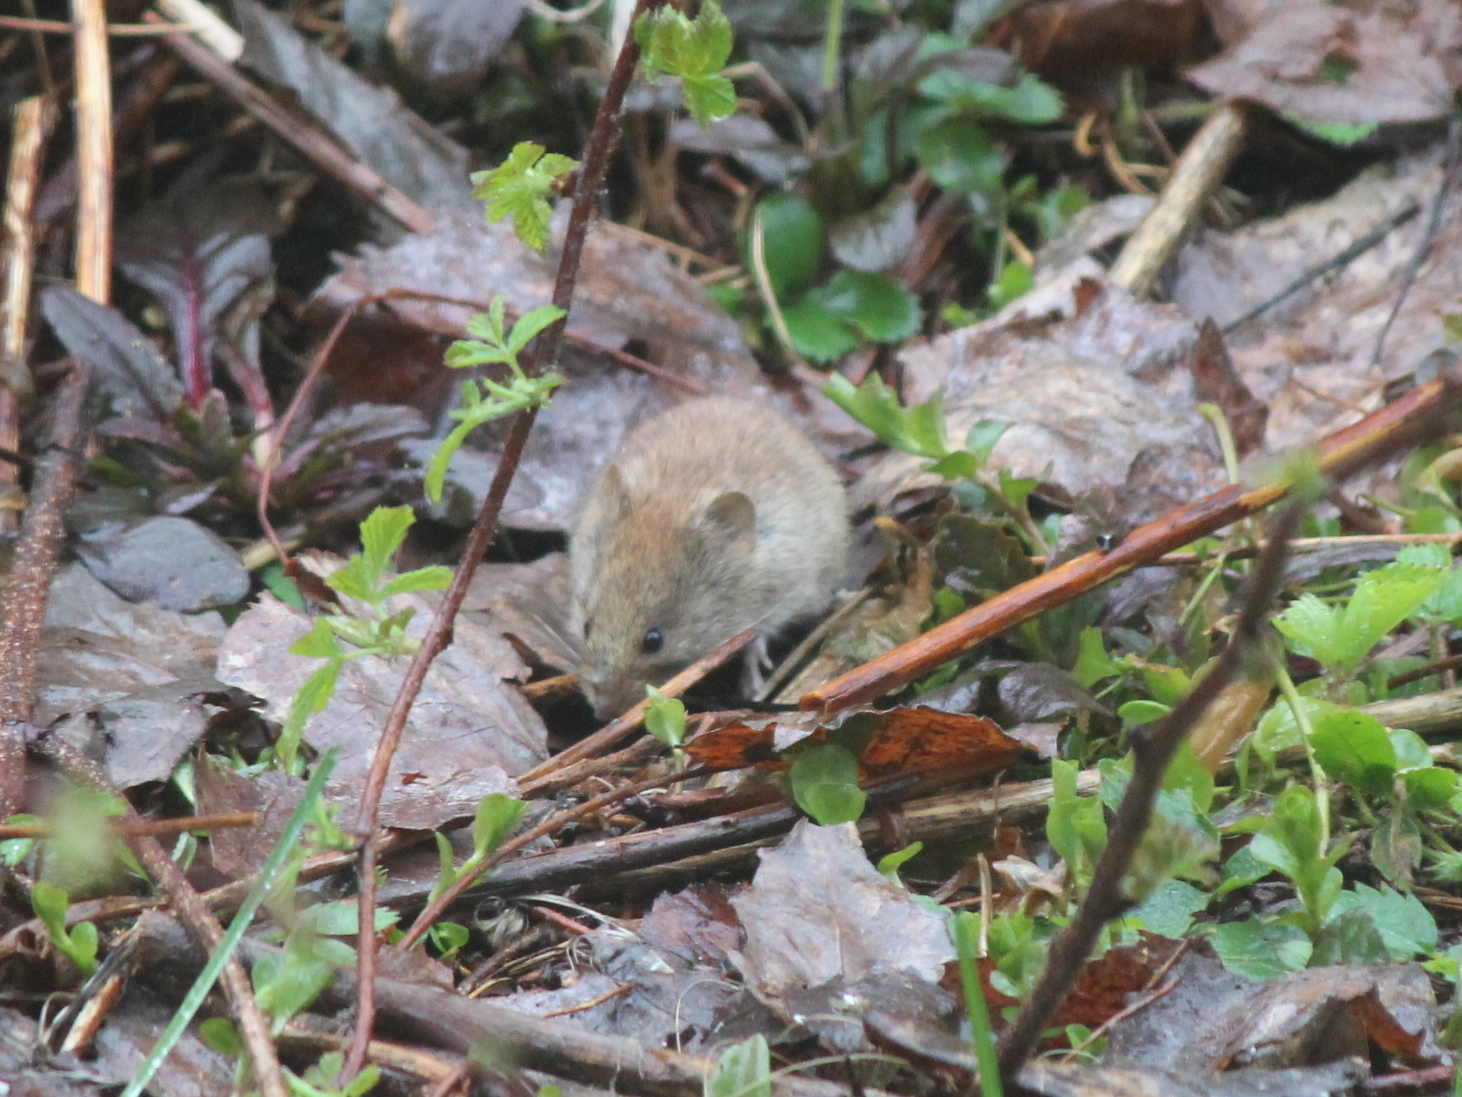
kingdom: Animalia
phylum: Chordata
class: Mammalia
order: Rodentia
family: Cricetidae
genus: Myodes
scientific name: Myodes gapperi
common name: Southern red-backed vole
